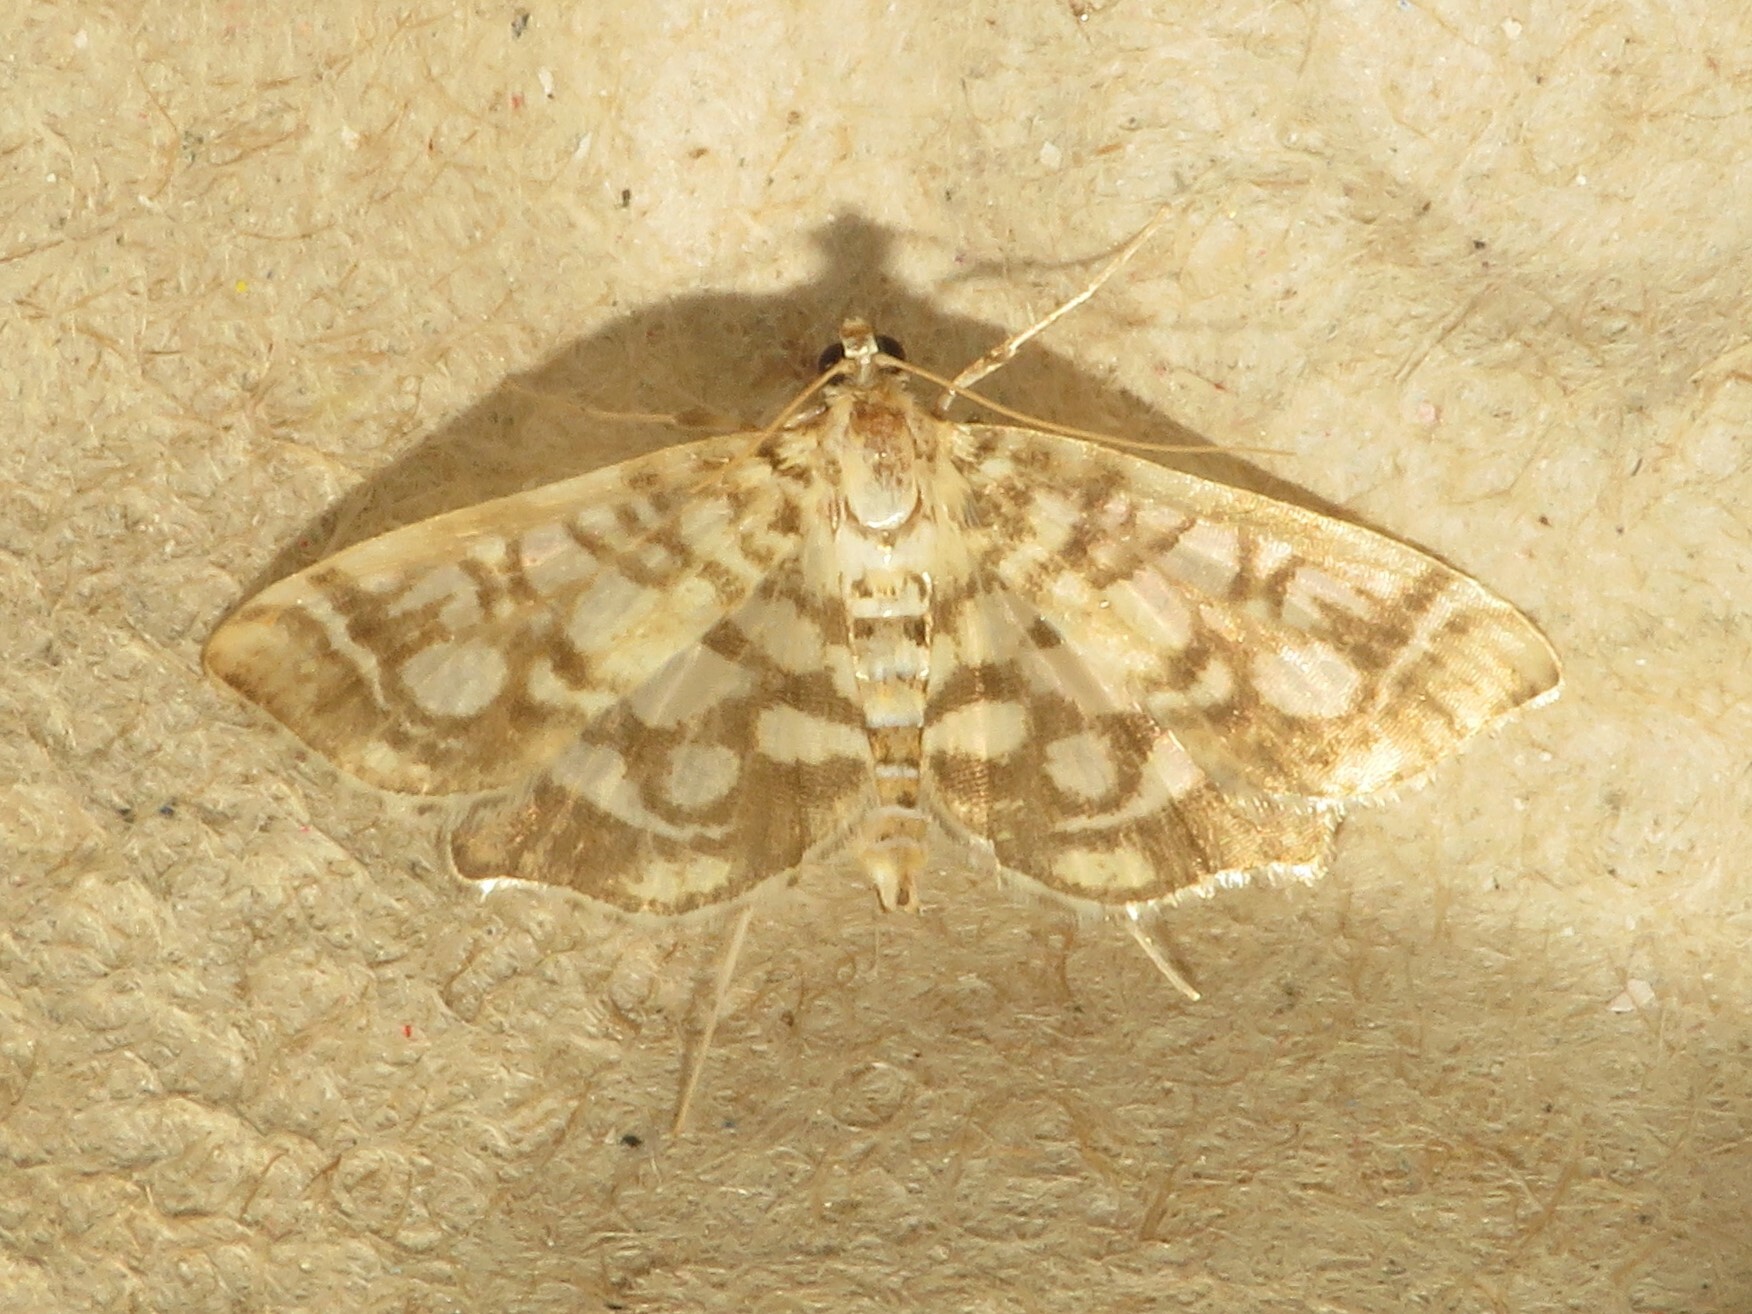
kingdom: Animalia
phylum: Arthropoda
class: Insecta
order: Lepidoptera
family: Crambidae
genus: Lygropia
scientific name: Lygropia rivulalis
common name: Bog lygropia moth
